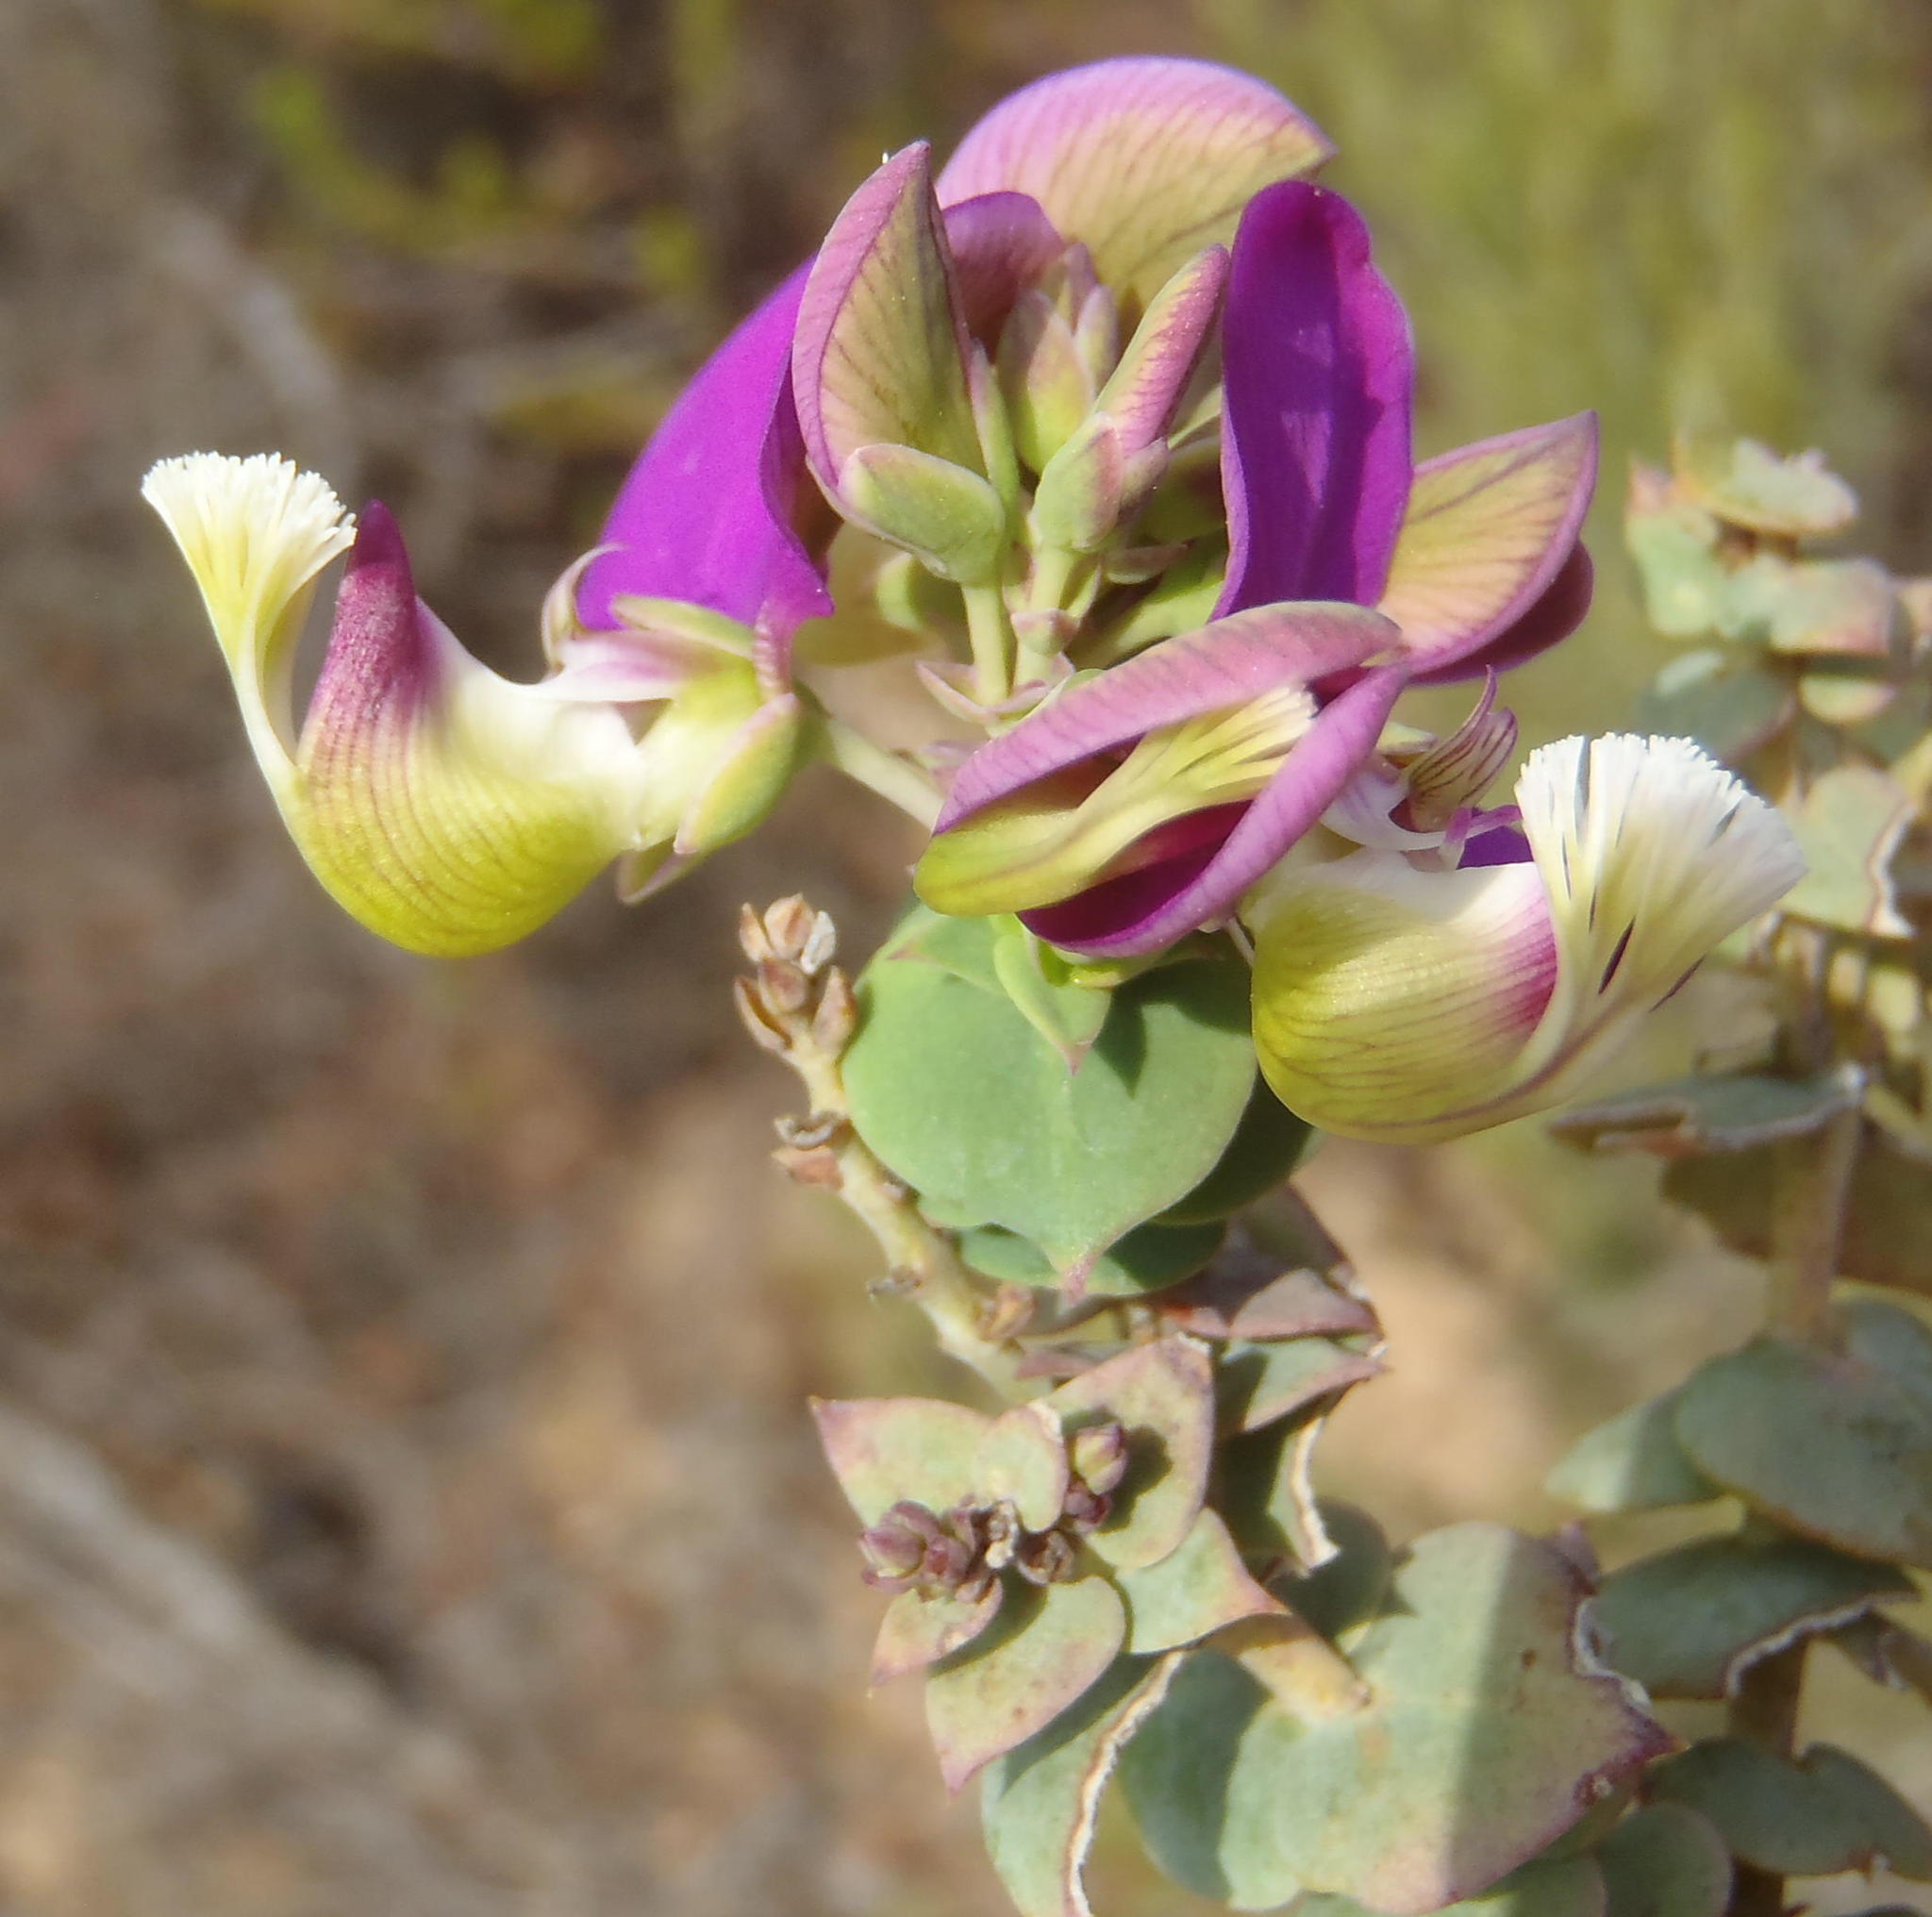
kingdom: Plantae
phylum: Tracheophyta
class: Magnoliopsida
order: Fabales
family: Polygalaceae
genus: Polygala
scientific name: Polygala fruticosa
